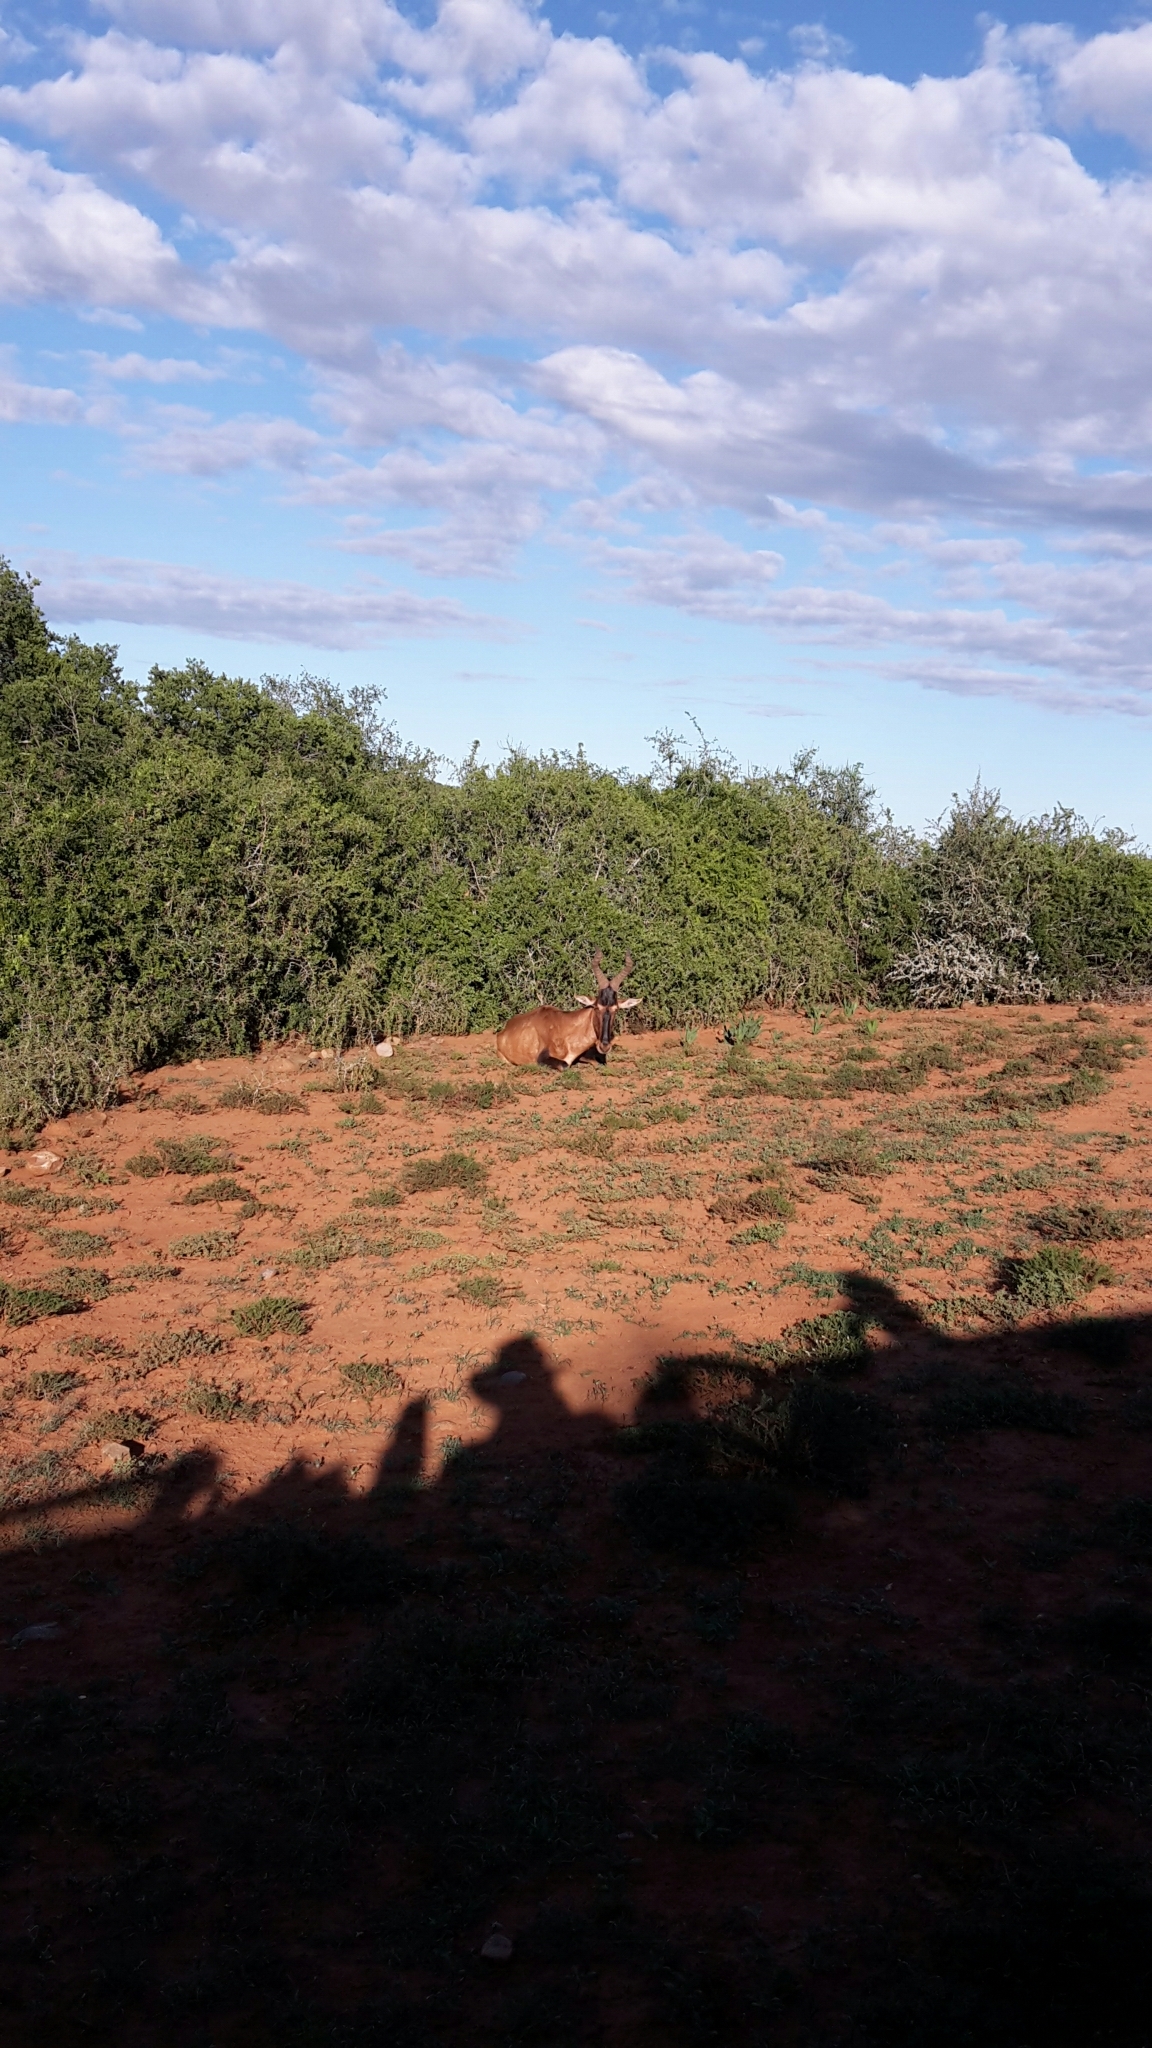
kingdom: Animalia
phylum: Chordata
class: Mammalia
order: Artiodactyla
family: Bovidae
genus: Alcelaphus
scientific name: Alcelaphus caama
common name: Red hartebeest
